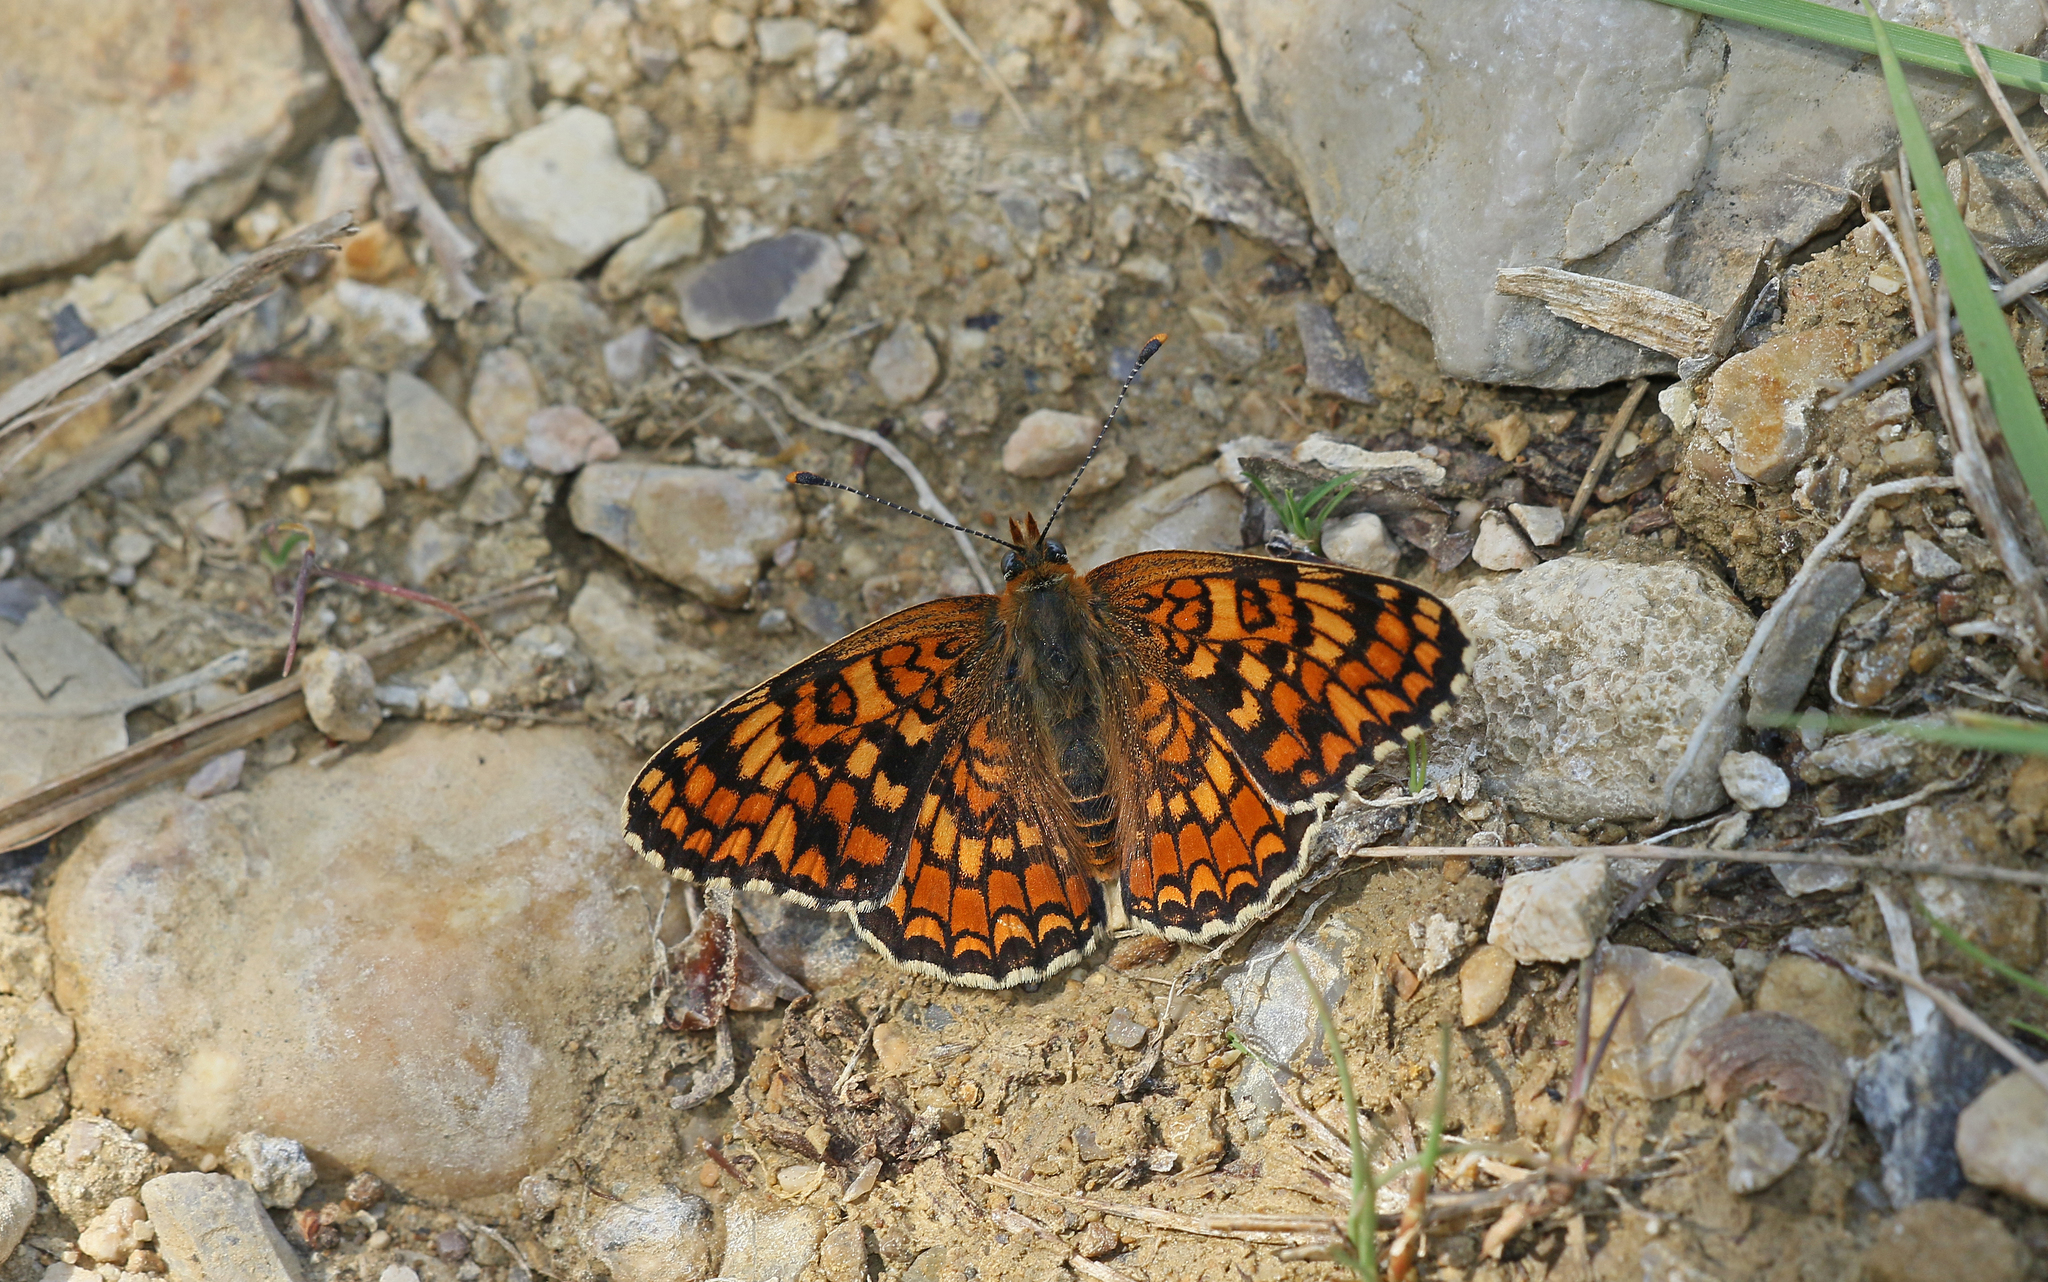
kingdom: Animalia
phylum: Arthropoda
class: Insecta
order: Lepidoptera
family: Nymphalidae
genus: Melitaea
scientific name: Melitaea phoebe
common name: Knapweed fritillary
